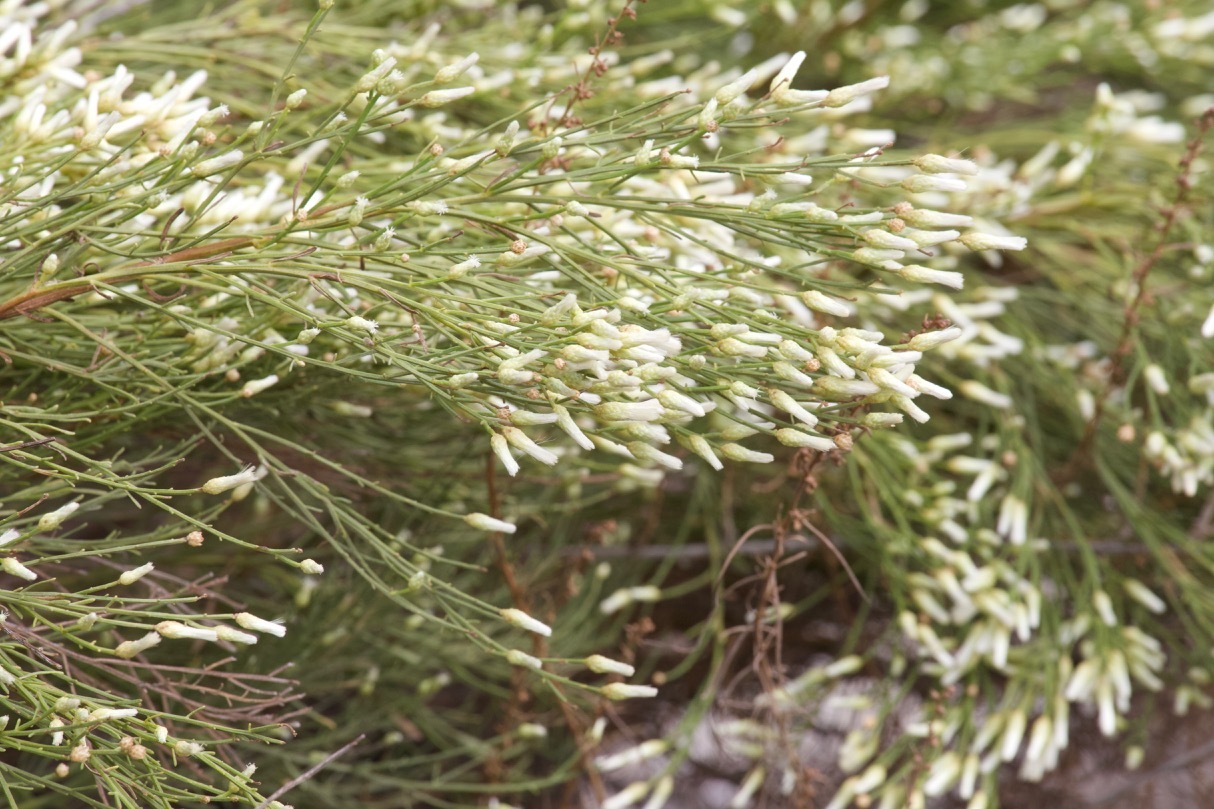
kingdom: Plantae
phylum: Tracheophyta
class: Magnoliopsida
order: Asterales
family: Asteraceae
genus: Baccharis
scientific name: Baccharis sarothroides
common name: Desert-broom
